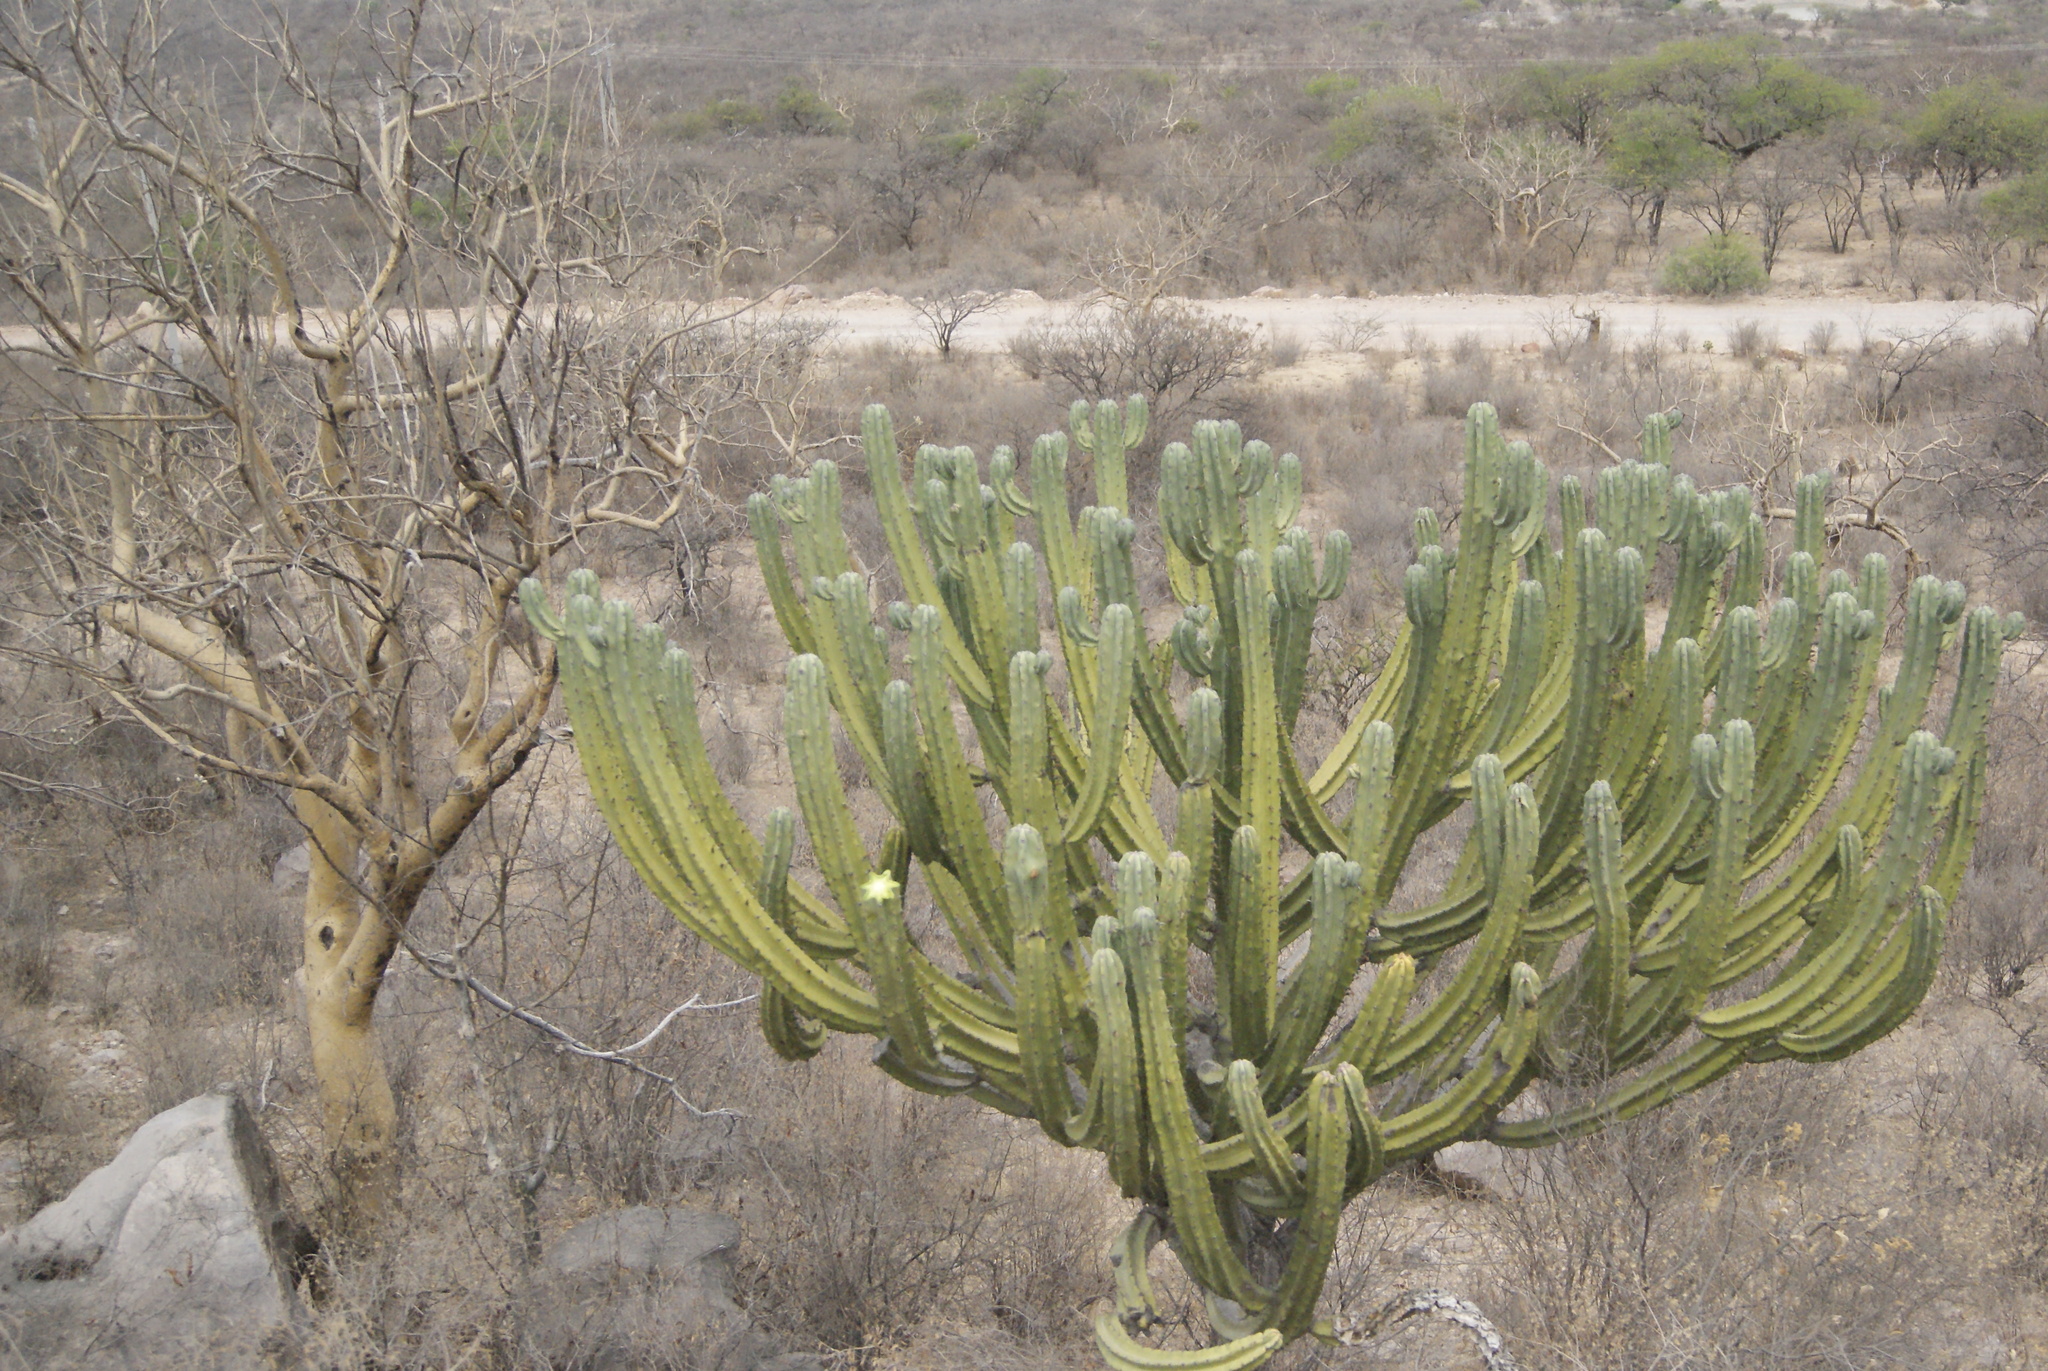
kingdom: Plantae
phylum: Tracheophyta
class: Magnoliopsida
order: Caryophyllales
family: Cactaceae
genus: Myrtillocactus
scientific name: Myrtillocactus geometrizans
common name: Bilberry cactus
